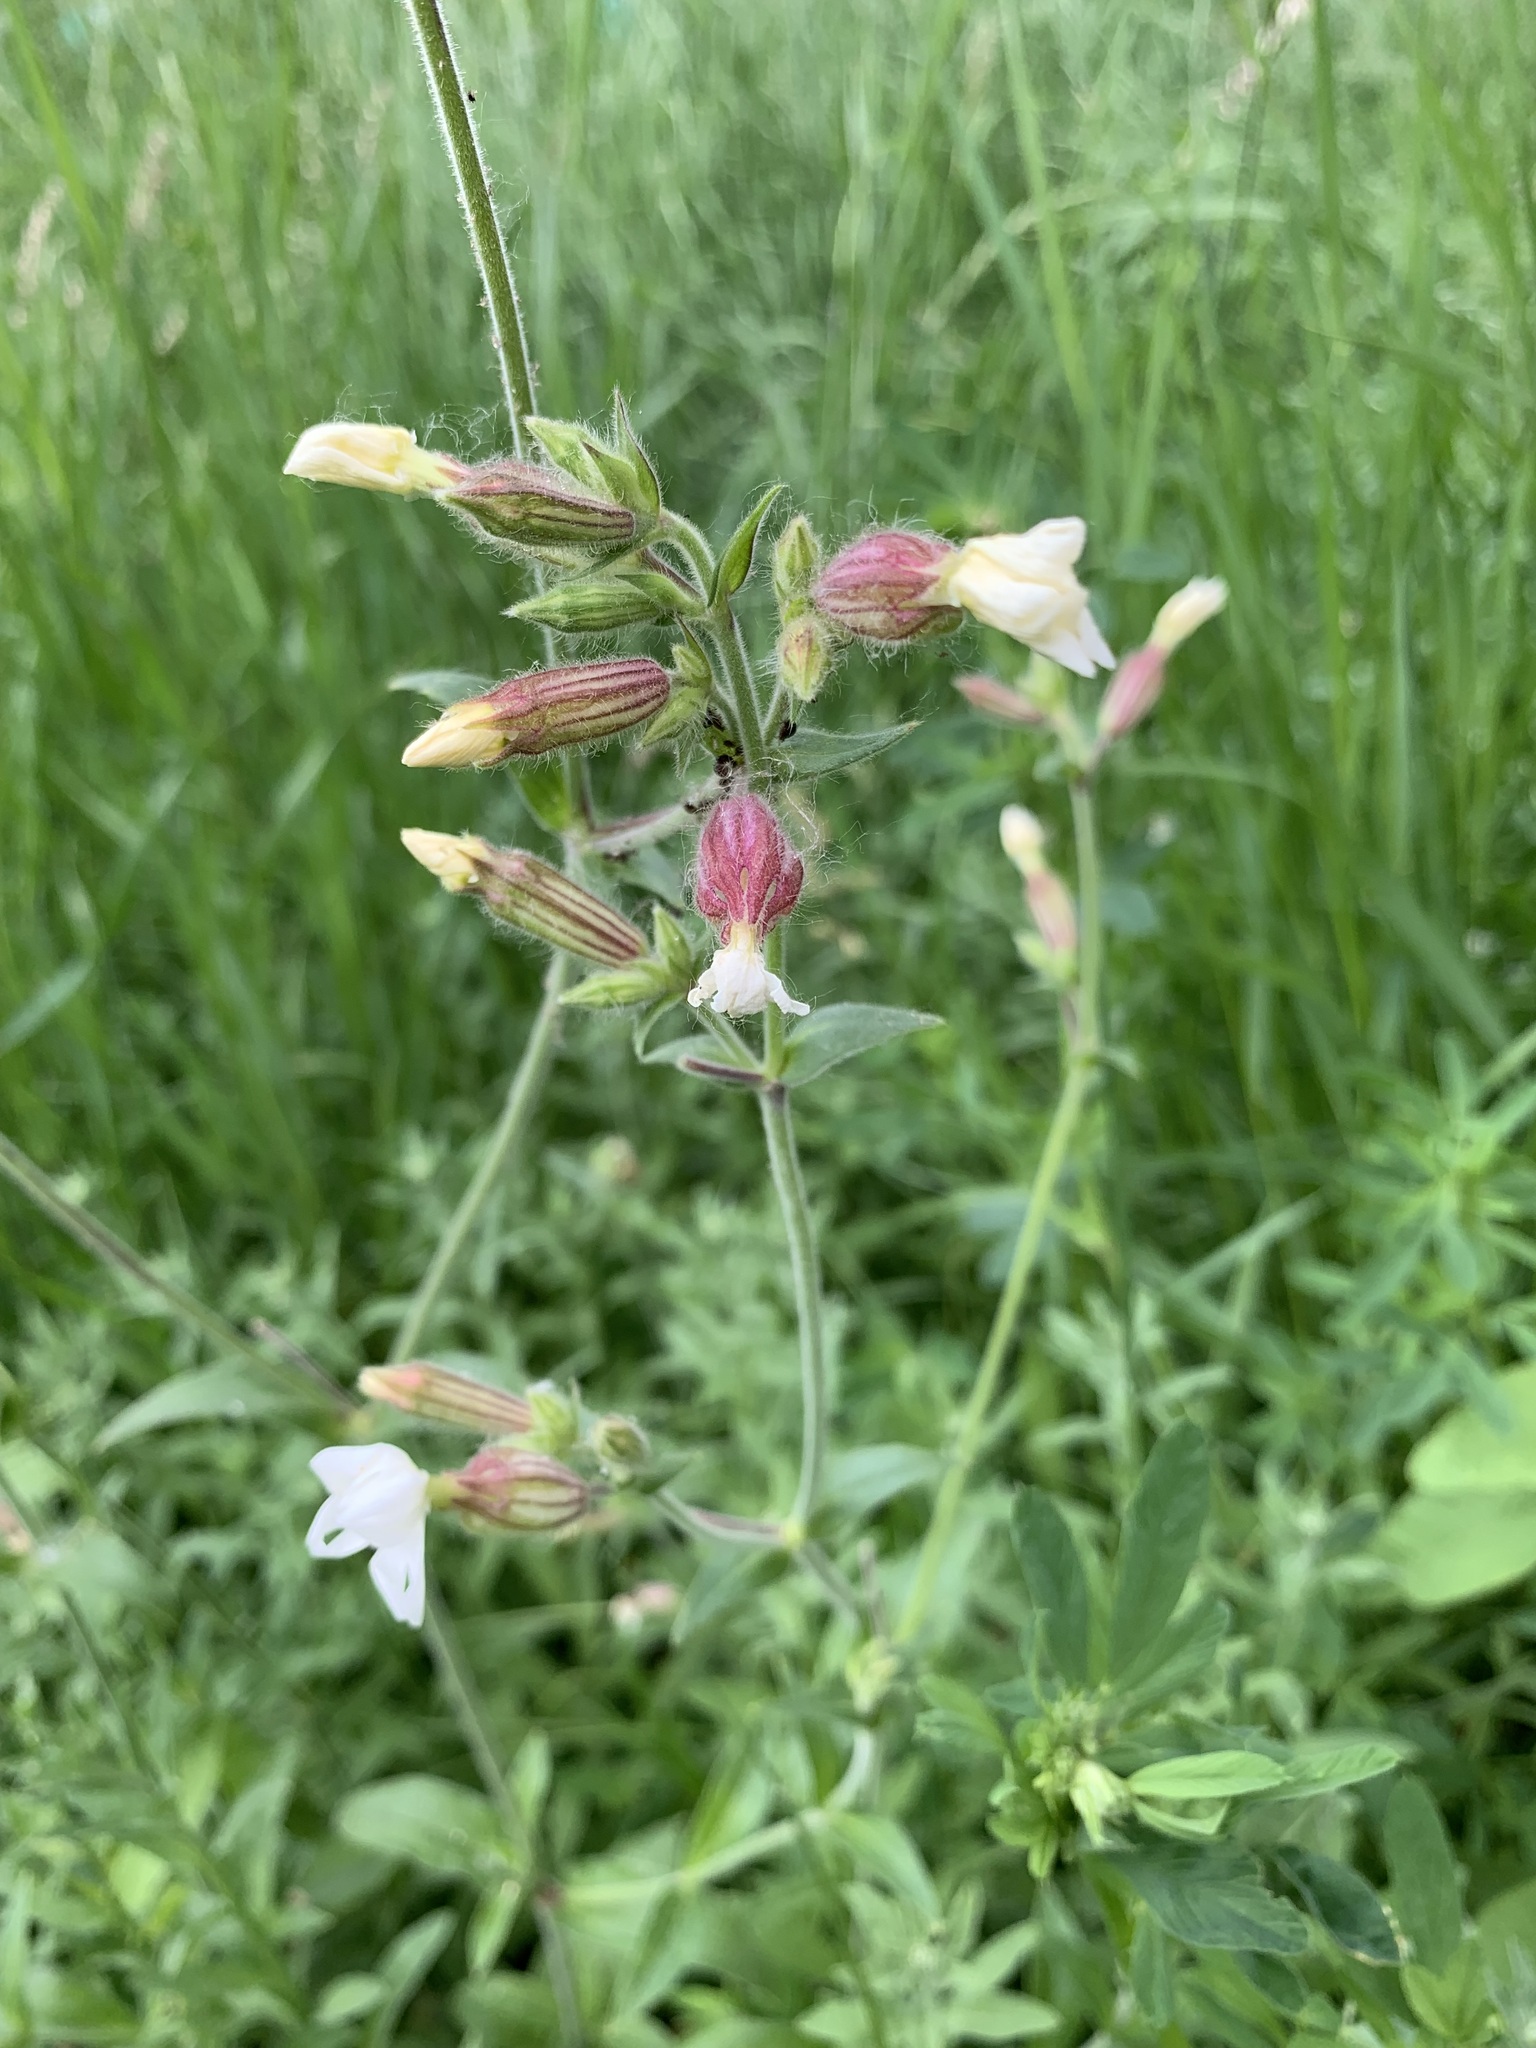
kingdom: Plantae
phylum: Tracheophyta
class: Magnoliopsida
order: Caryophyllales
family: Caryophyllaceae
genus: Silene
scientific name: Silene latifolia
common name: White campion
